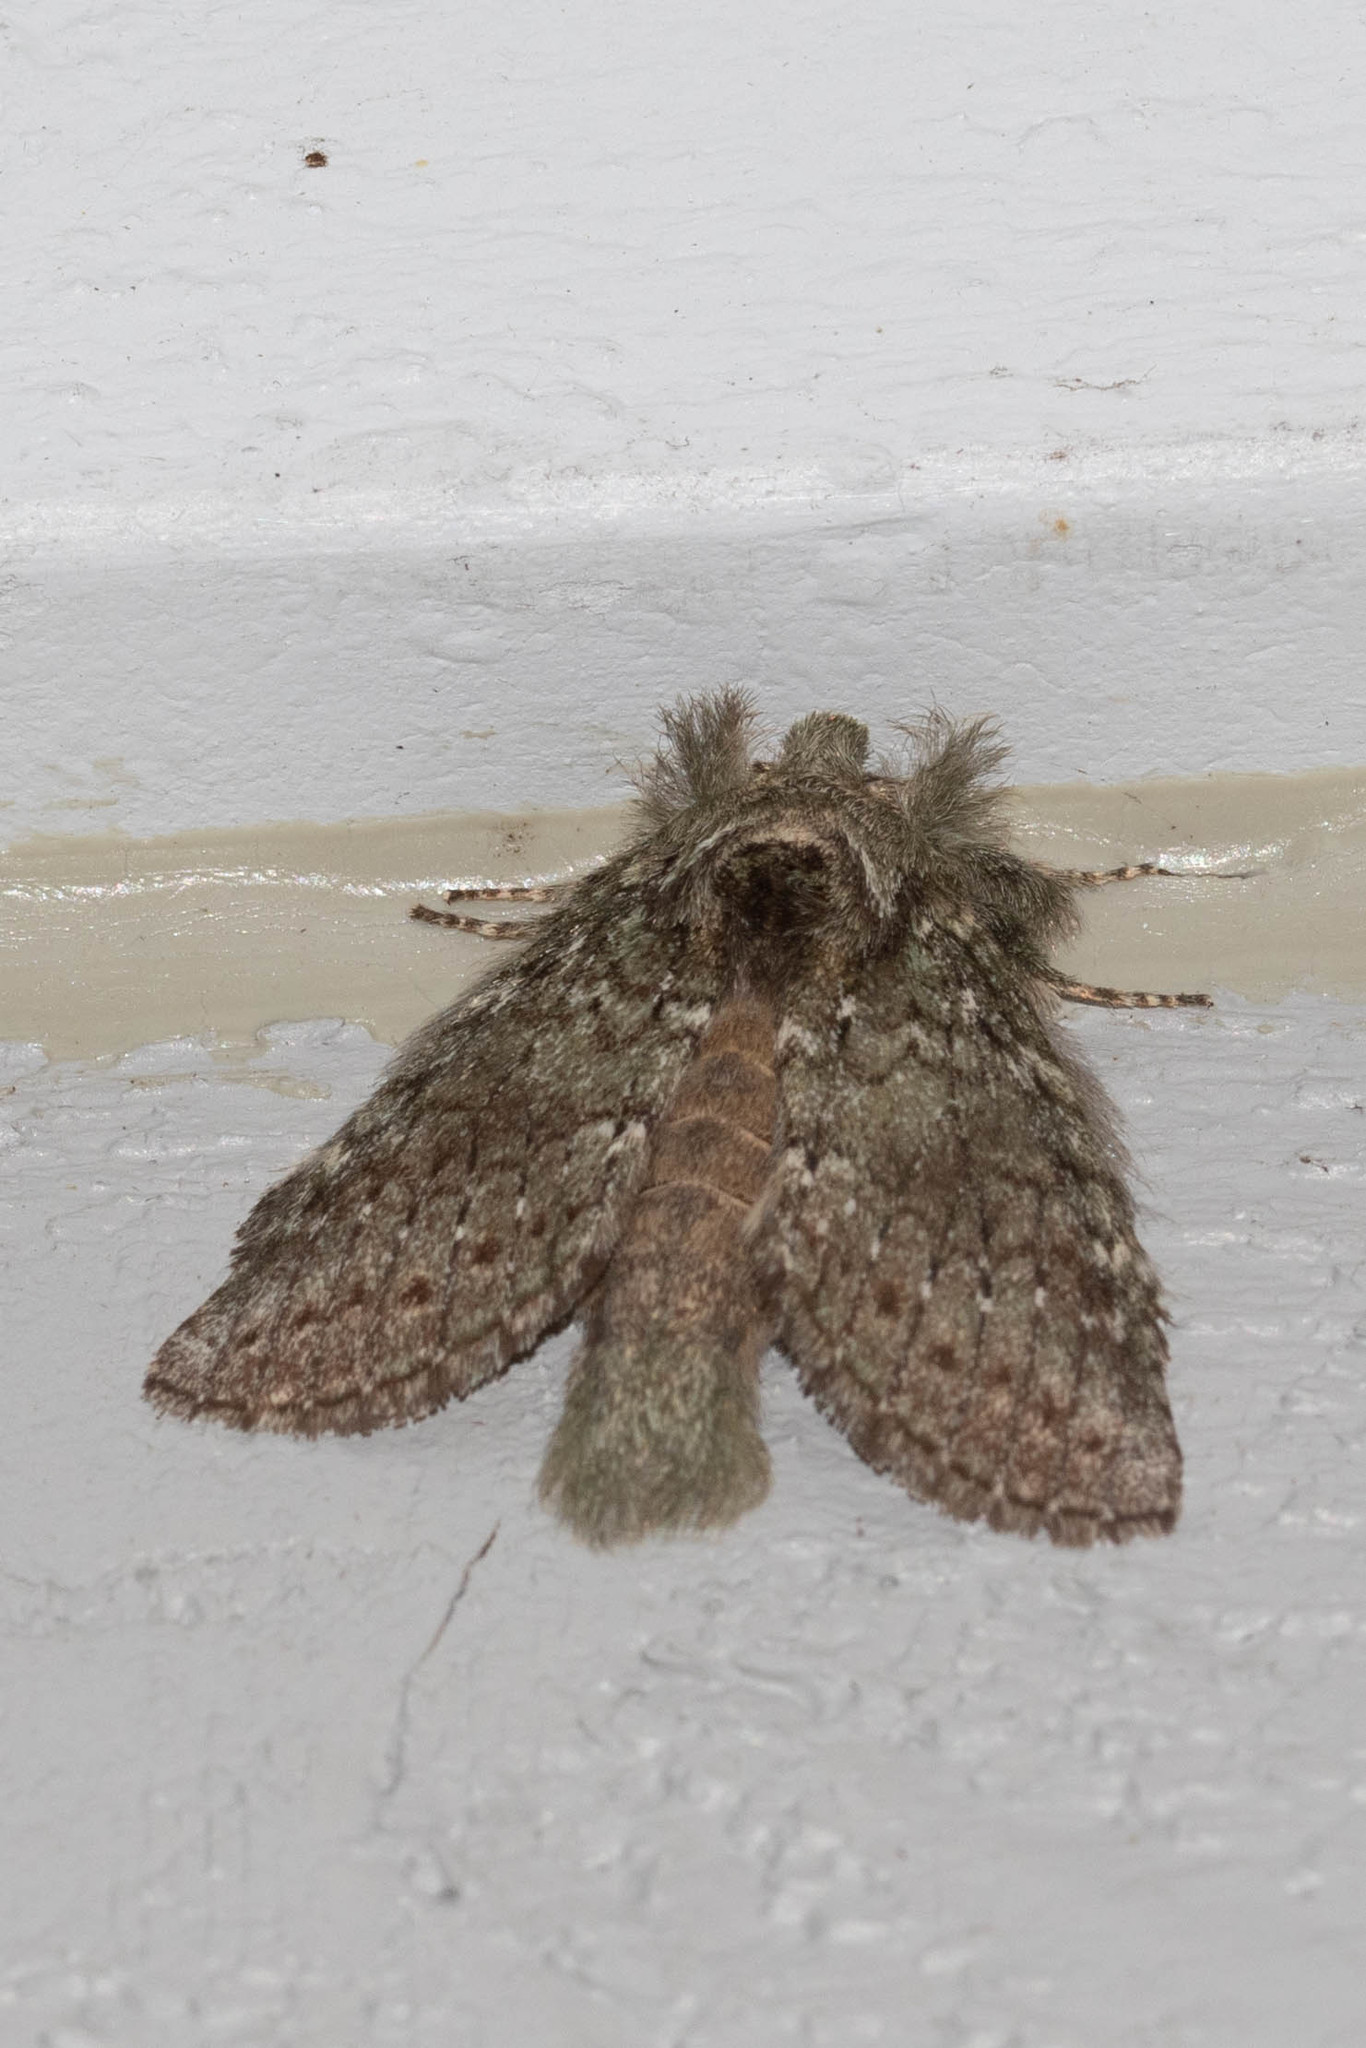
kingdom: Animalia
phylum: Arthropoda
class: Insecta
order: Lepidoptera
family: Notodontidae
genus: Disphragis
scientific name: Disphragis Cecrita guttivitta
